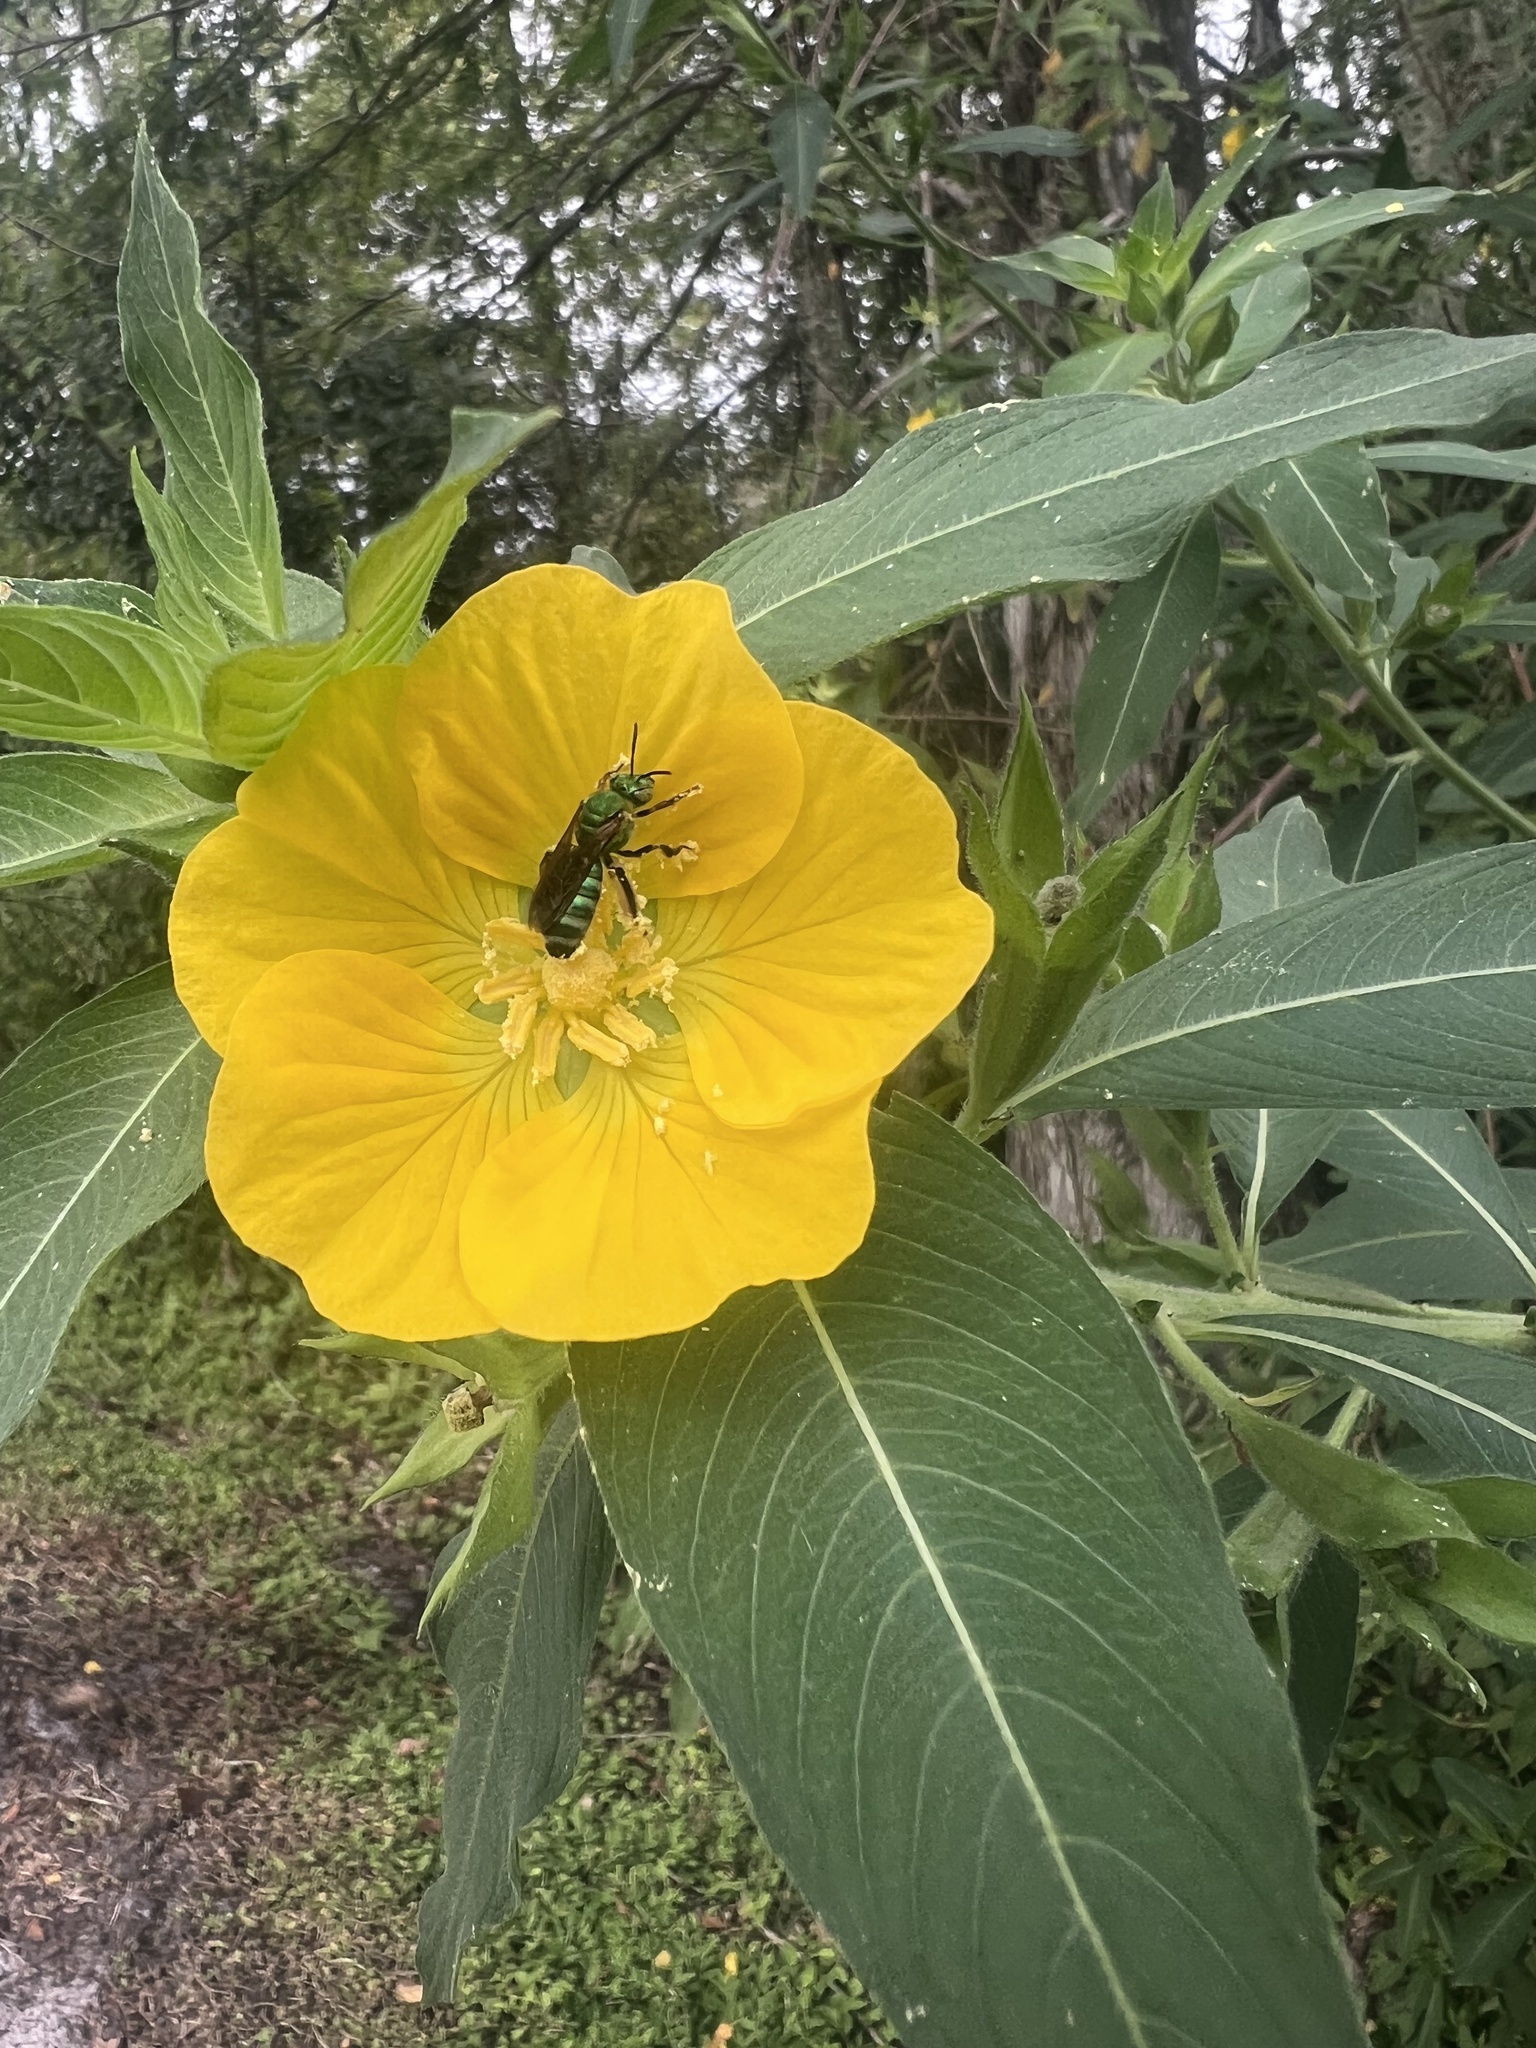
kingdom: Animalia
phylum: Arthropoda
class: Insecta
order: Hymenoptera
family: Halictidae
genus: Agapostemon
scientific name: Agapostemon splendens
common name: Brown-winged striped sweat bee
